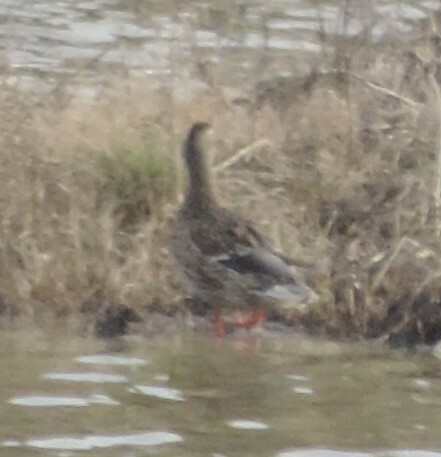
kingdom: Animalia
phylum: Chordata
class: Aves
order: Anseriformes
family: Anatidae
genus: Anas
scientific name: Anas platyrhynchos
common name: Mallard
